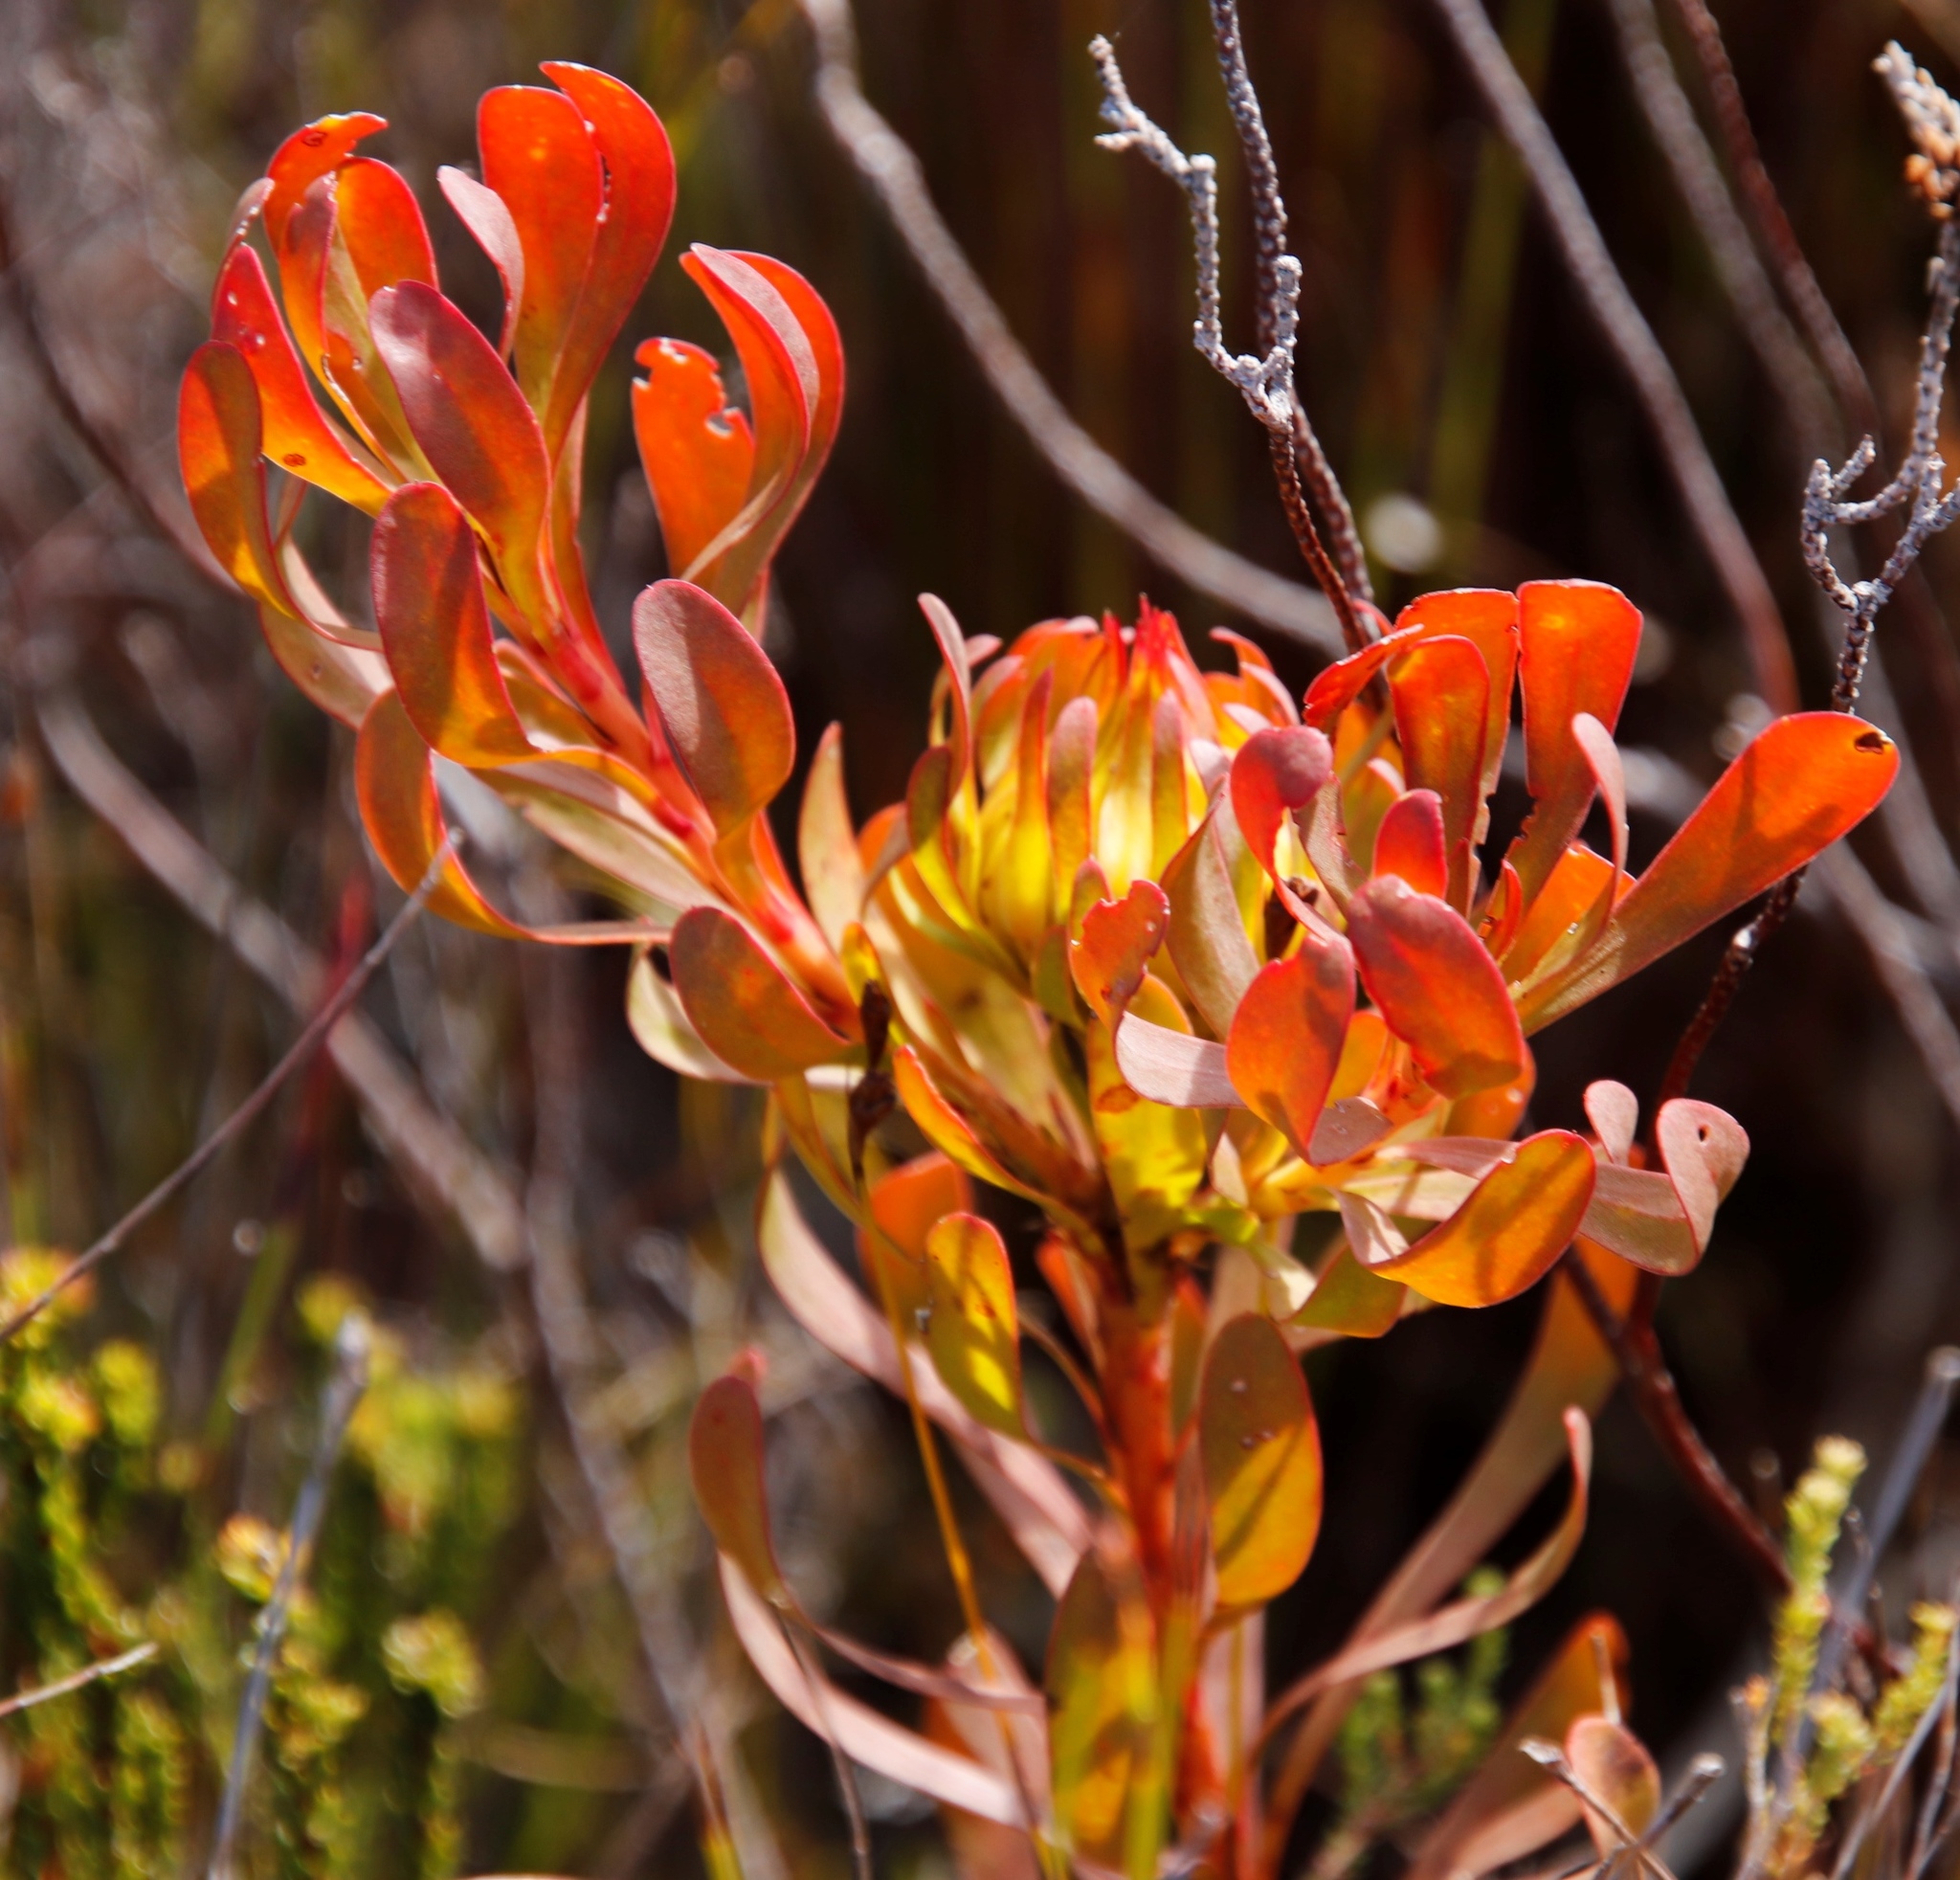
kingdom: Plantae
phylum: Tracheophyta
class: Magnoliopsida
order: Proteales
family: Proteaceae
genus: Aulax
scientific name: Aulax umbellata
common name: Broad-leaf featherbush
